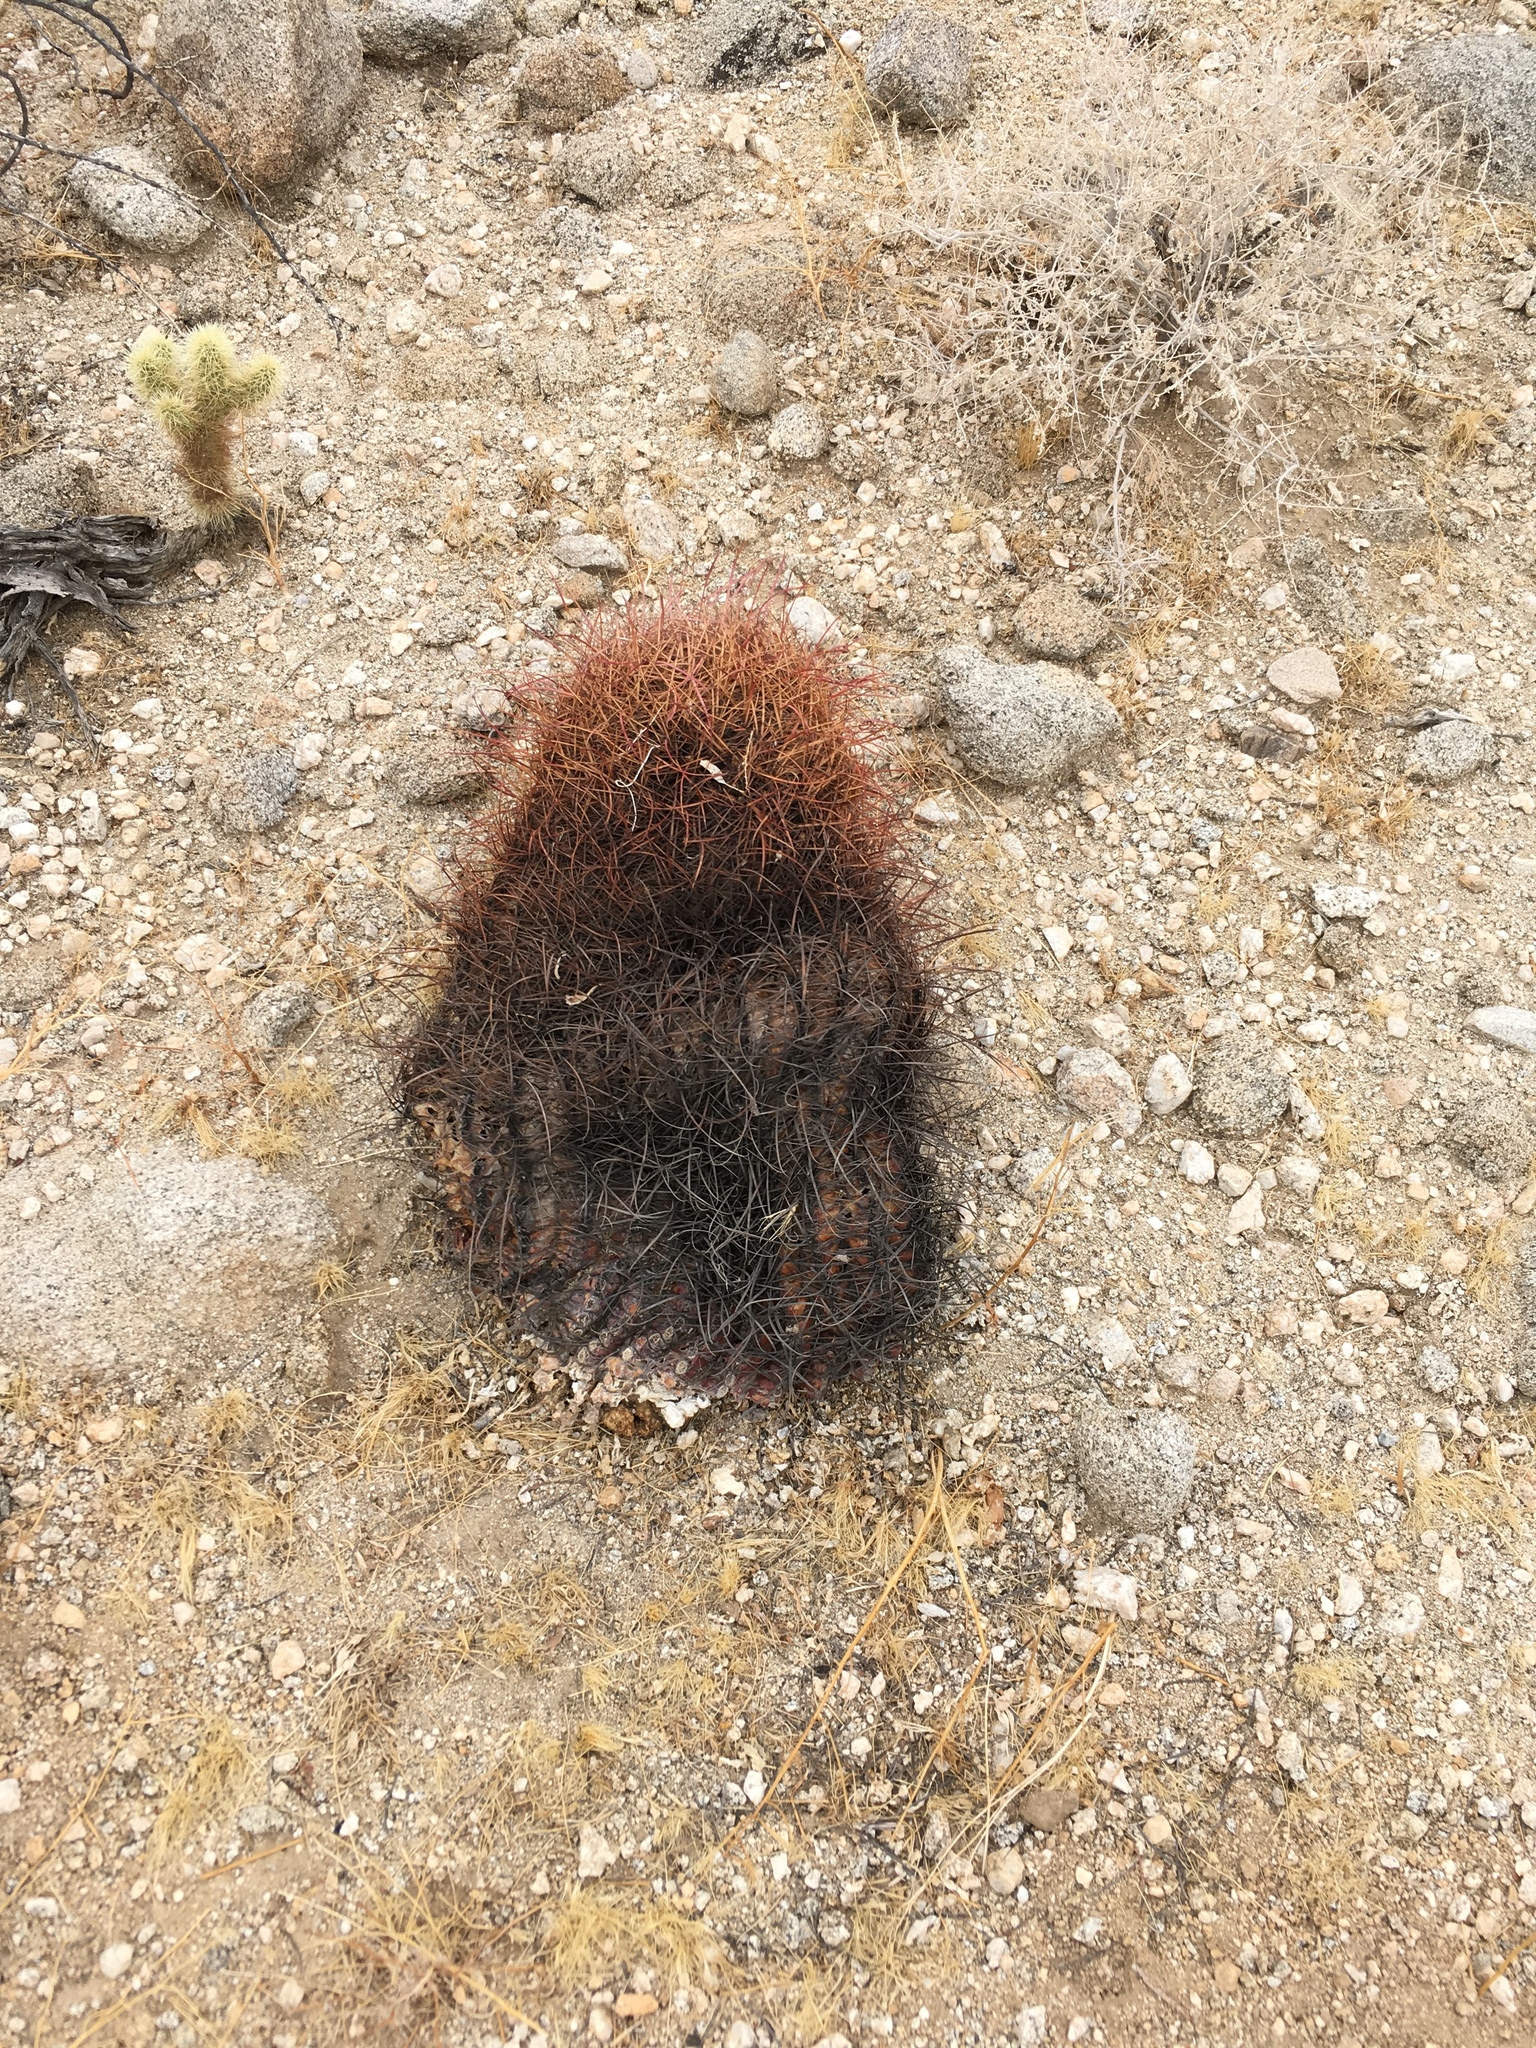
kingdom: Plantae
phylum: Tracheophyta
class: Magnoliopsida
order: Caryophyllales
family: Cactaceae
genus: Ferocactus
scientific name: Ferocactus cylindraceus
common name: California barrel cactus
